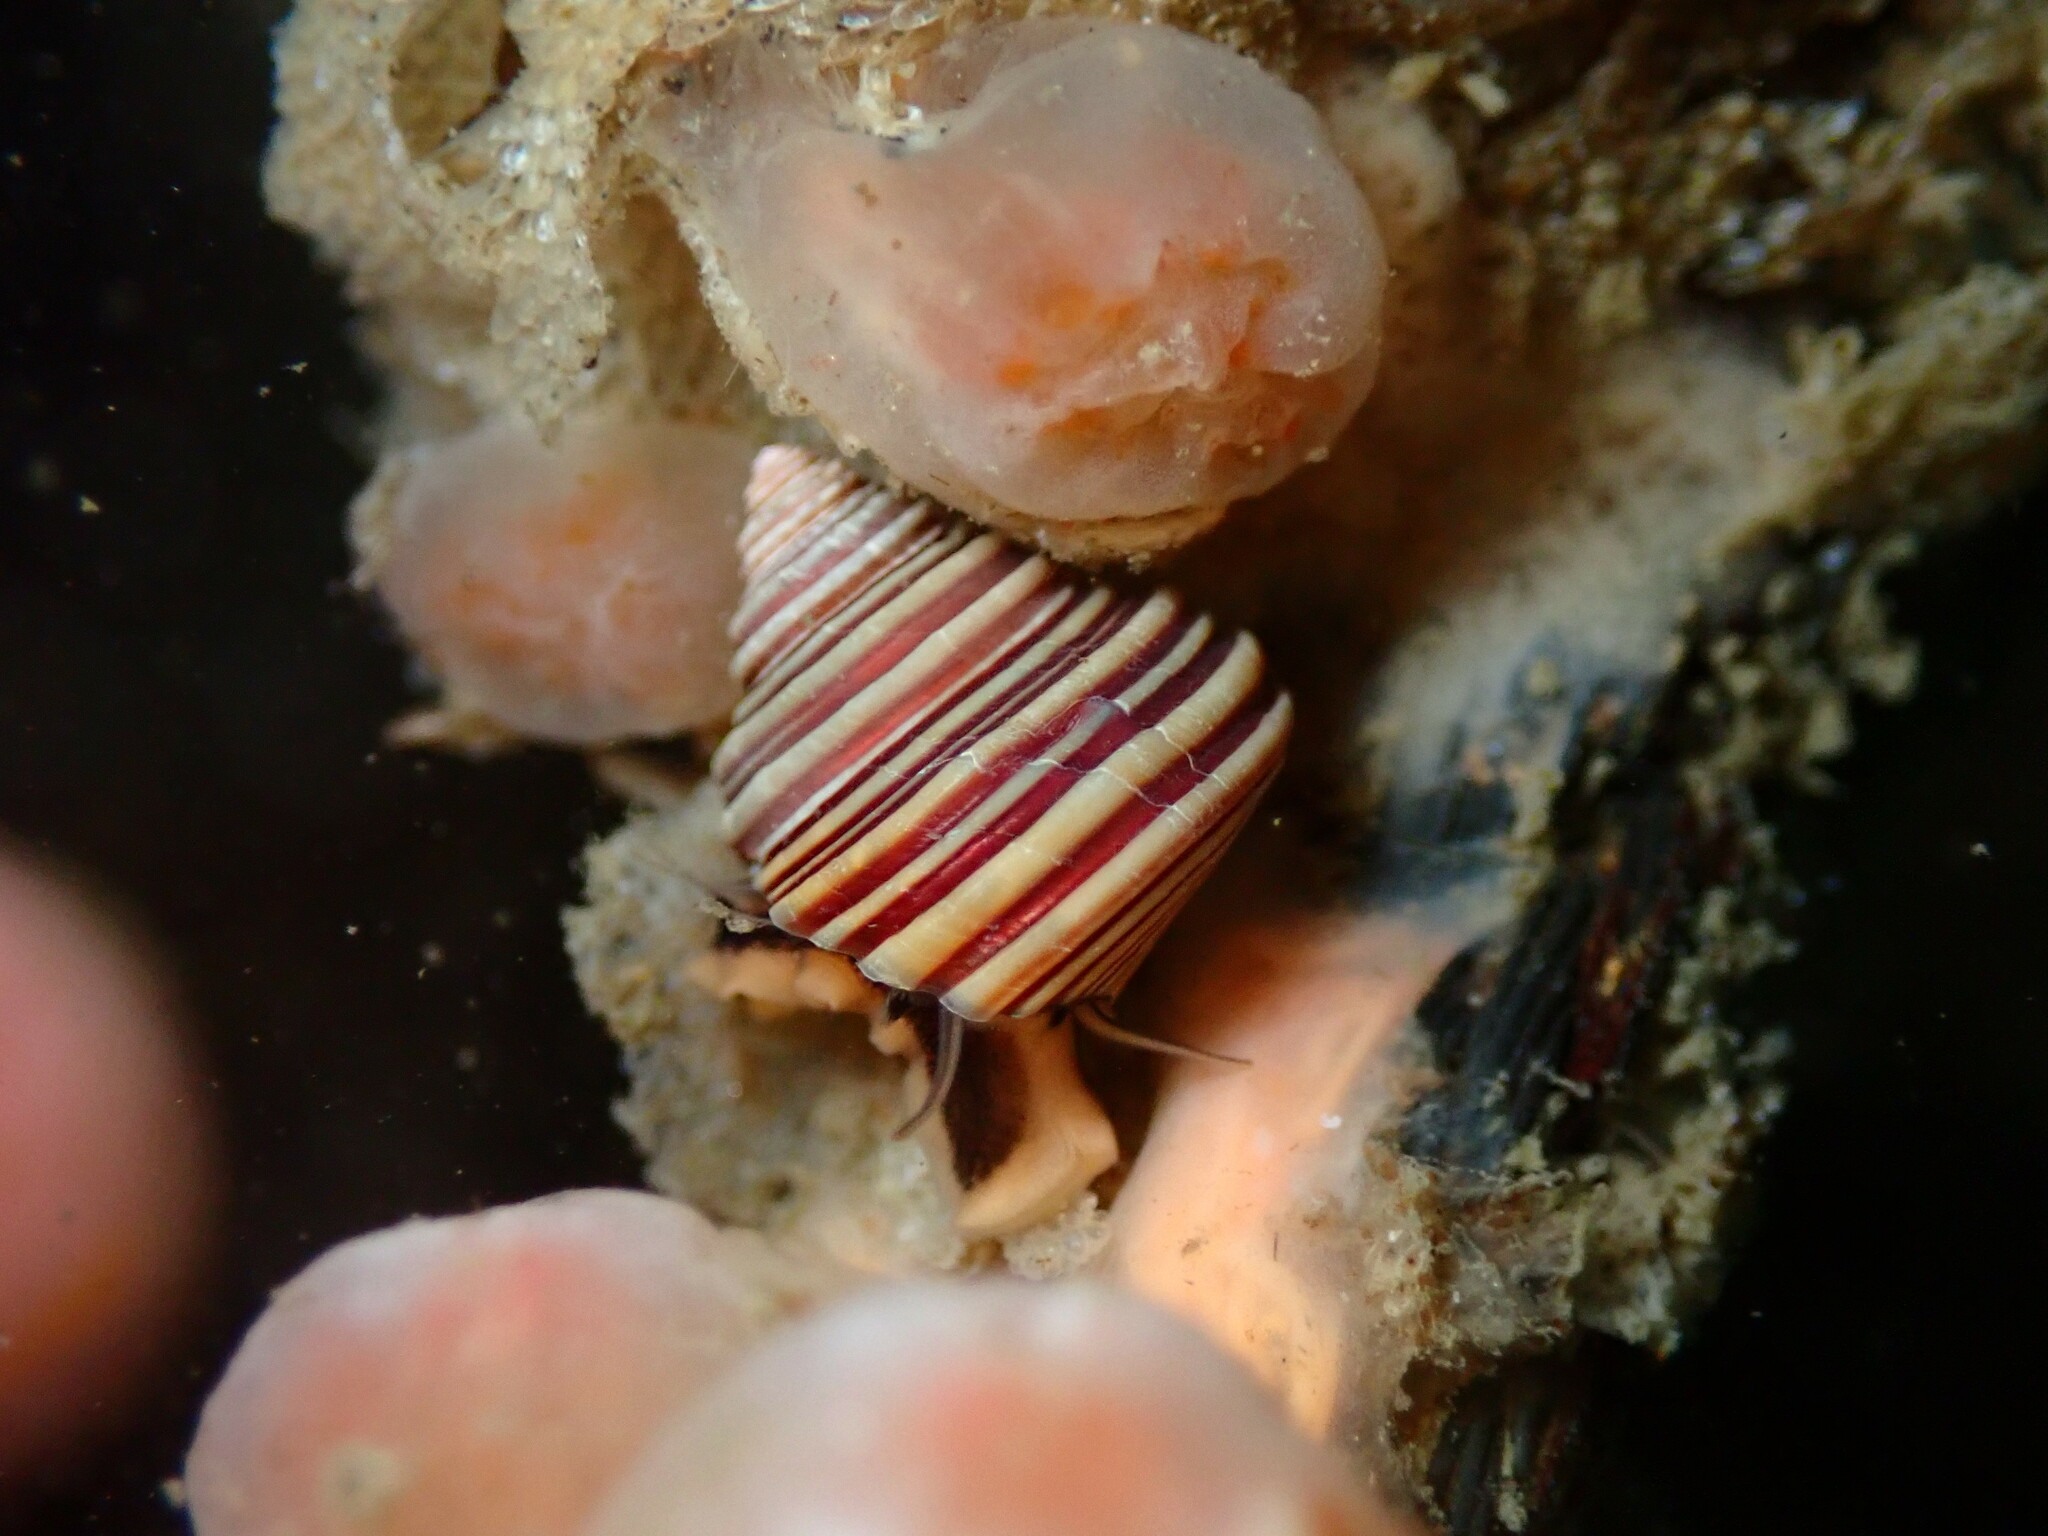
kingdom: Animalia
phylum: Mollusca
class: Gastropoda
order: Trochida
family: Calliostomatidae
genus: Calliostoma
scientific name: Calliostoma ligatum
